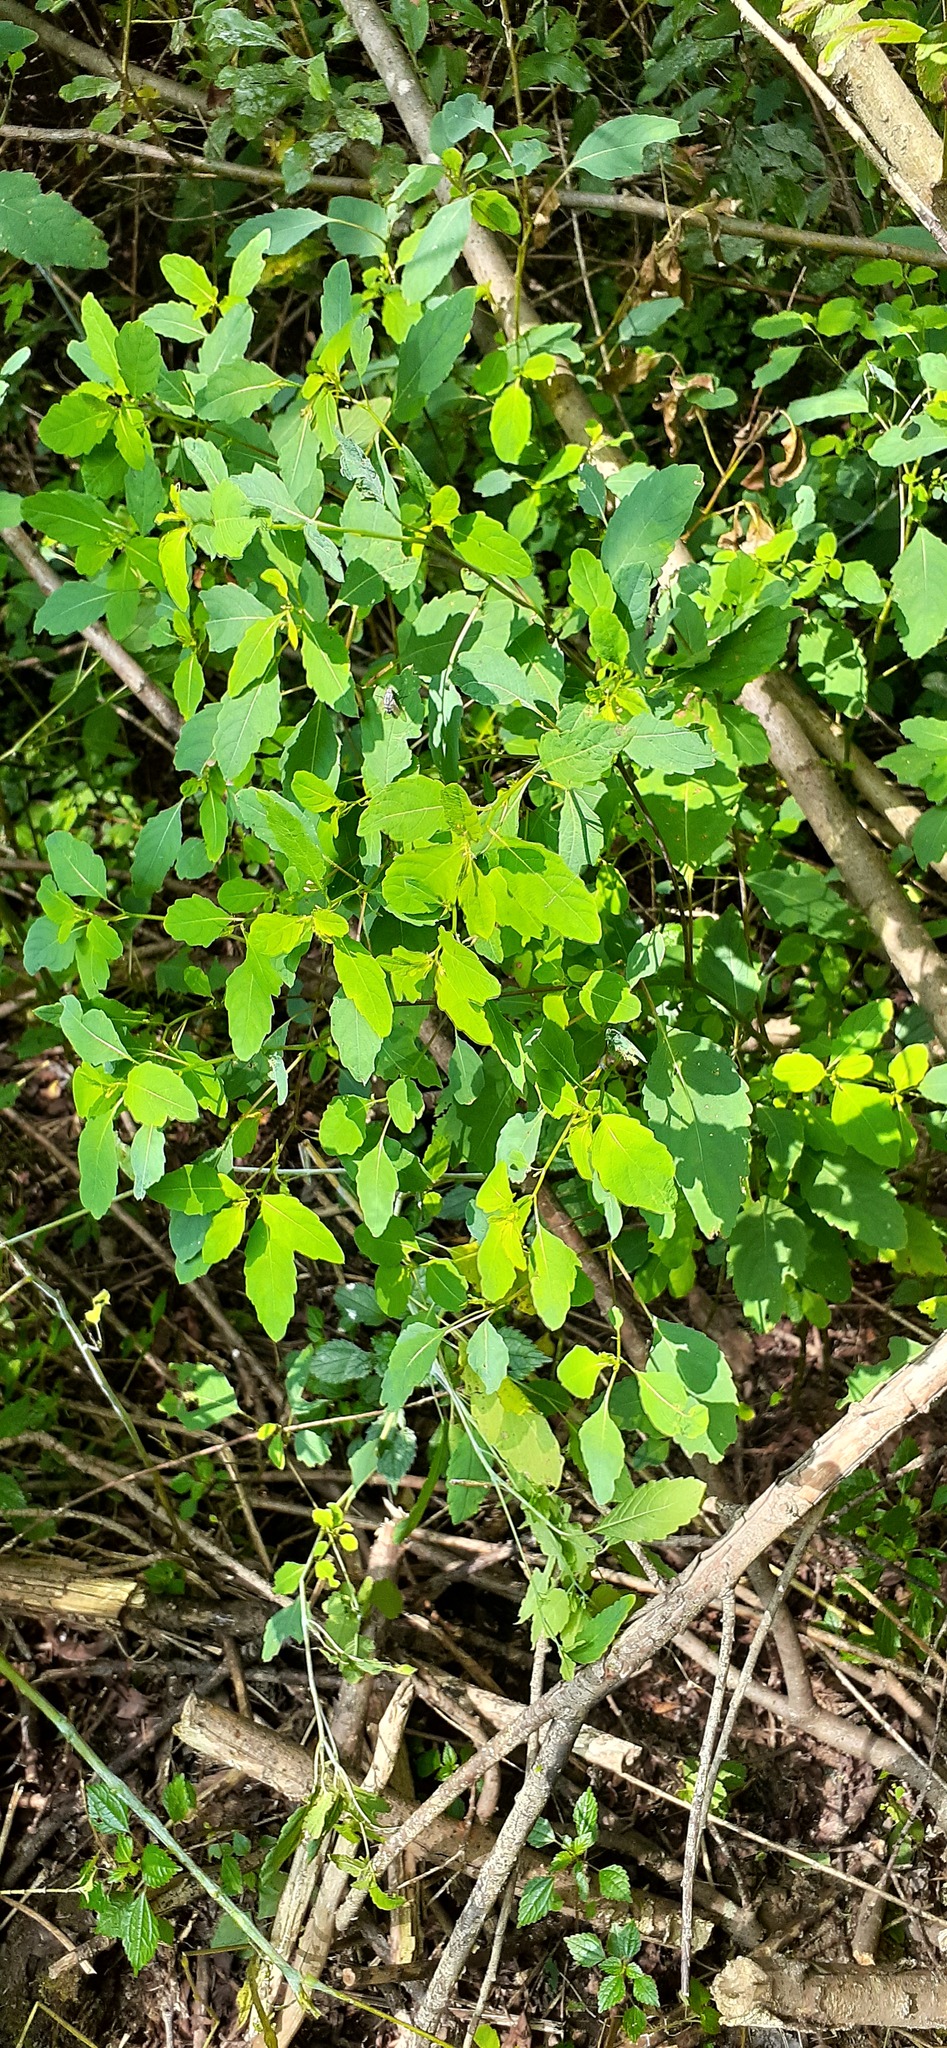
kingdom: Plantae
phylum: Tracheophyta
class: Magnoliopsida
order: Ericales
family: Balsaminaceae
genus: Impatiens
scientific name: Impatiens noli-tangere
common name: Touch-me-not balsam
